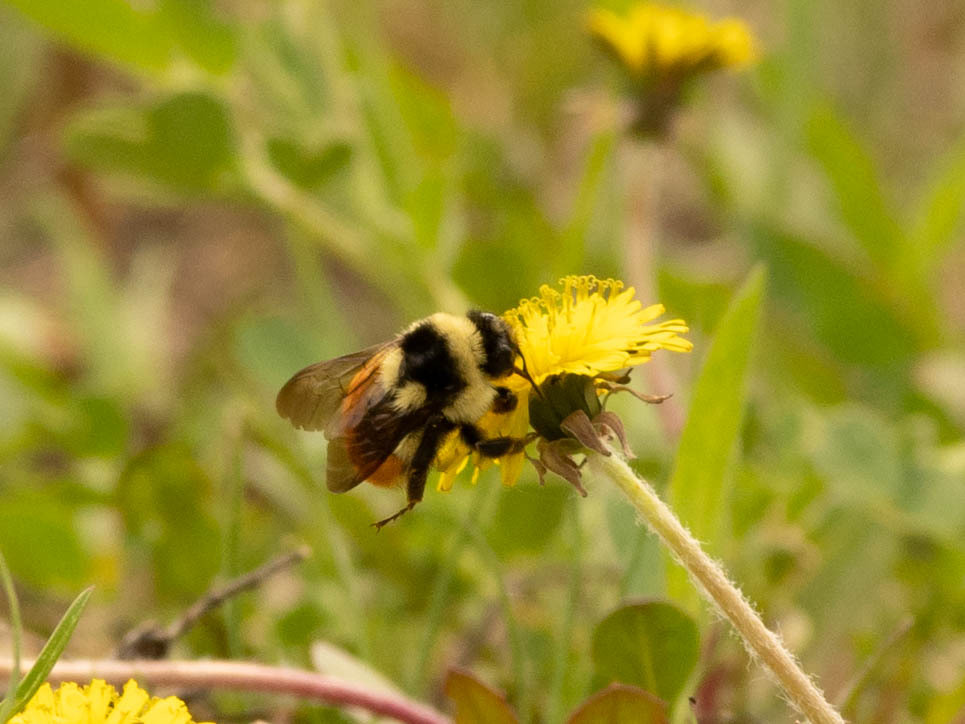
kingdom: Animalia
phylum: Arthropoda
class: Insecta
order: Hymenoptera
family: Apidae
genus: Bombus
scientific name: Bombus ternarius
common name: Tri-colored bumble bee
